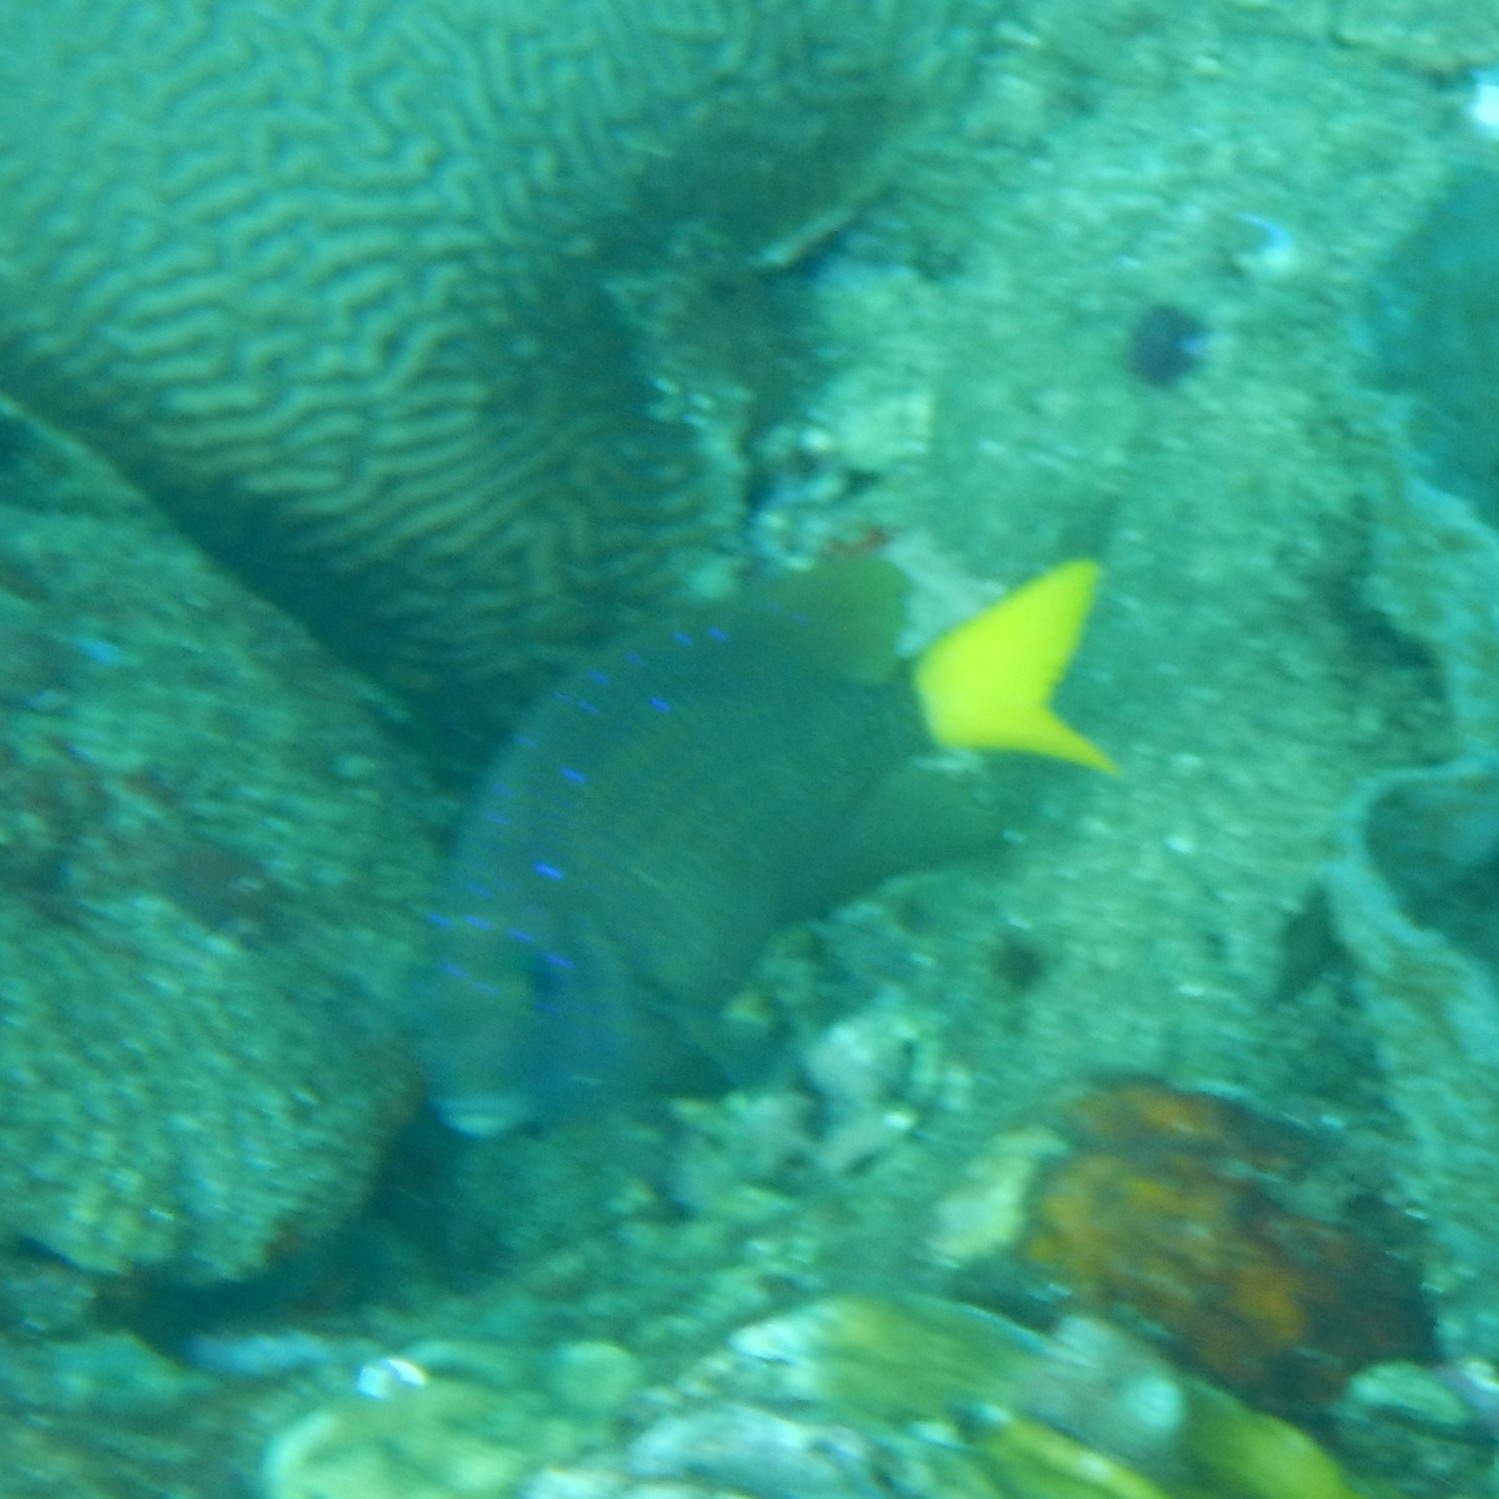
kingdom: Animalia
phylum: Chordata
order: Perciformes
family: Pomacentridae
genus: Microspathodon
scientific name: Microspathodon chrysurus
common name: Yellowtail damselfish
